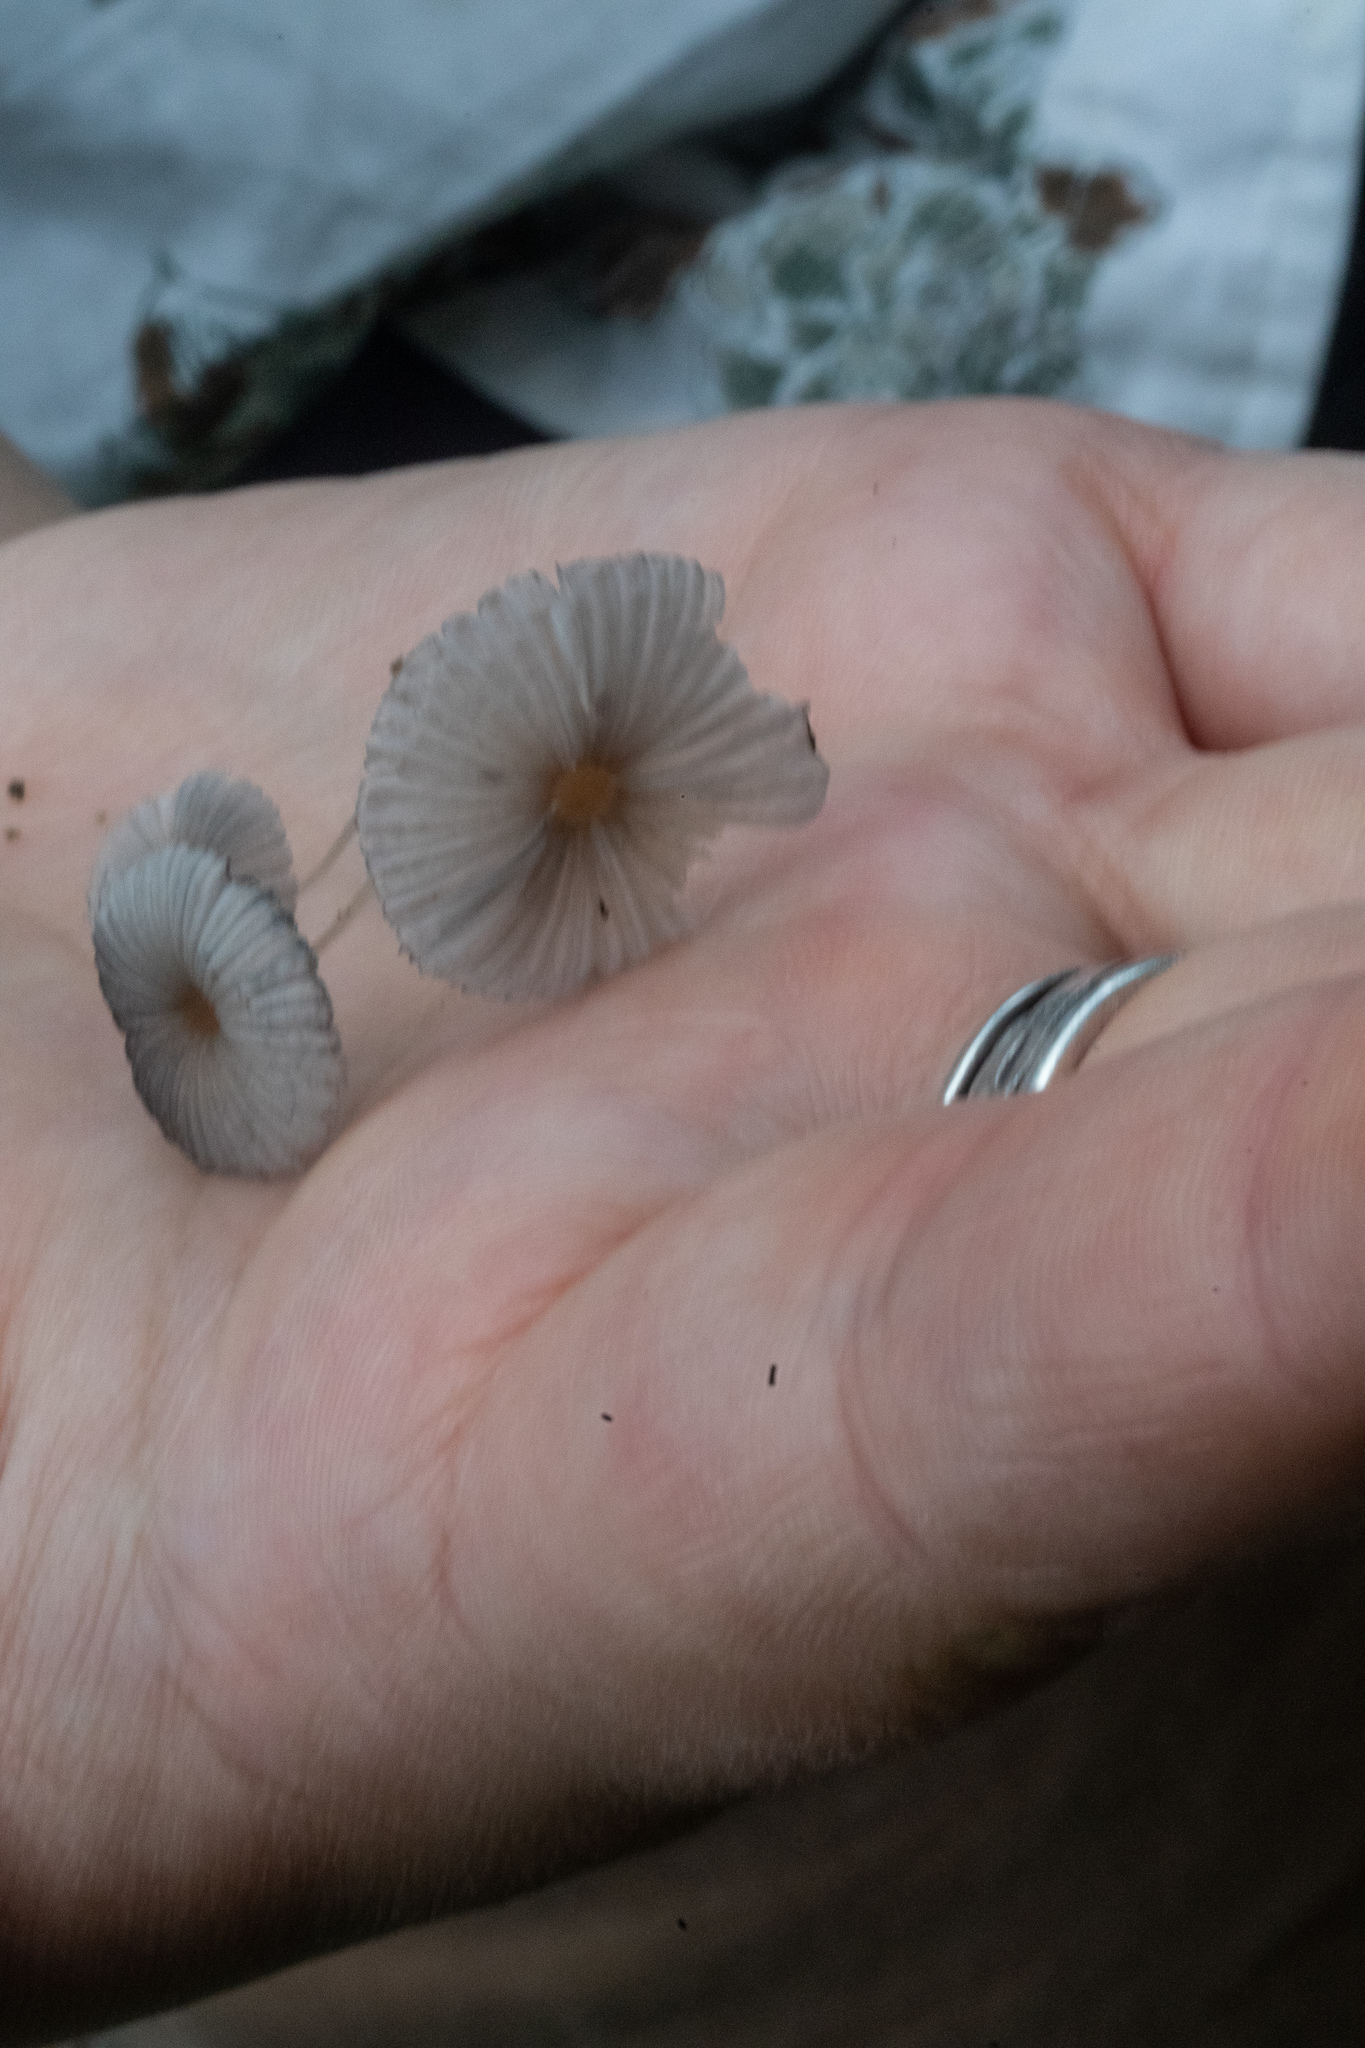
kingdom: Fungi
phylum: Basidiomycota
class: Agaricomycetes
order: Agaricales
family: Psathyrellaceae
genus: Parasola
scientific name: Parasola plicatilis
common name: Pleated inkcap
